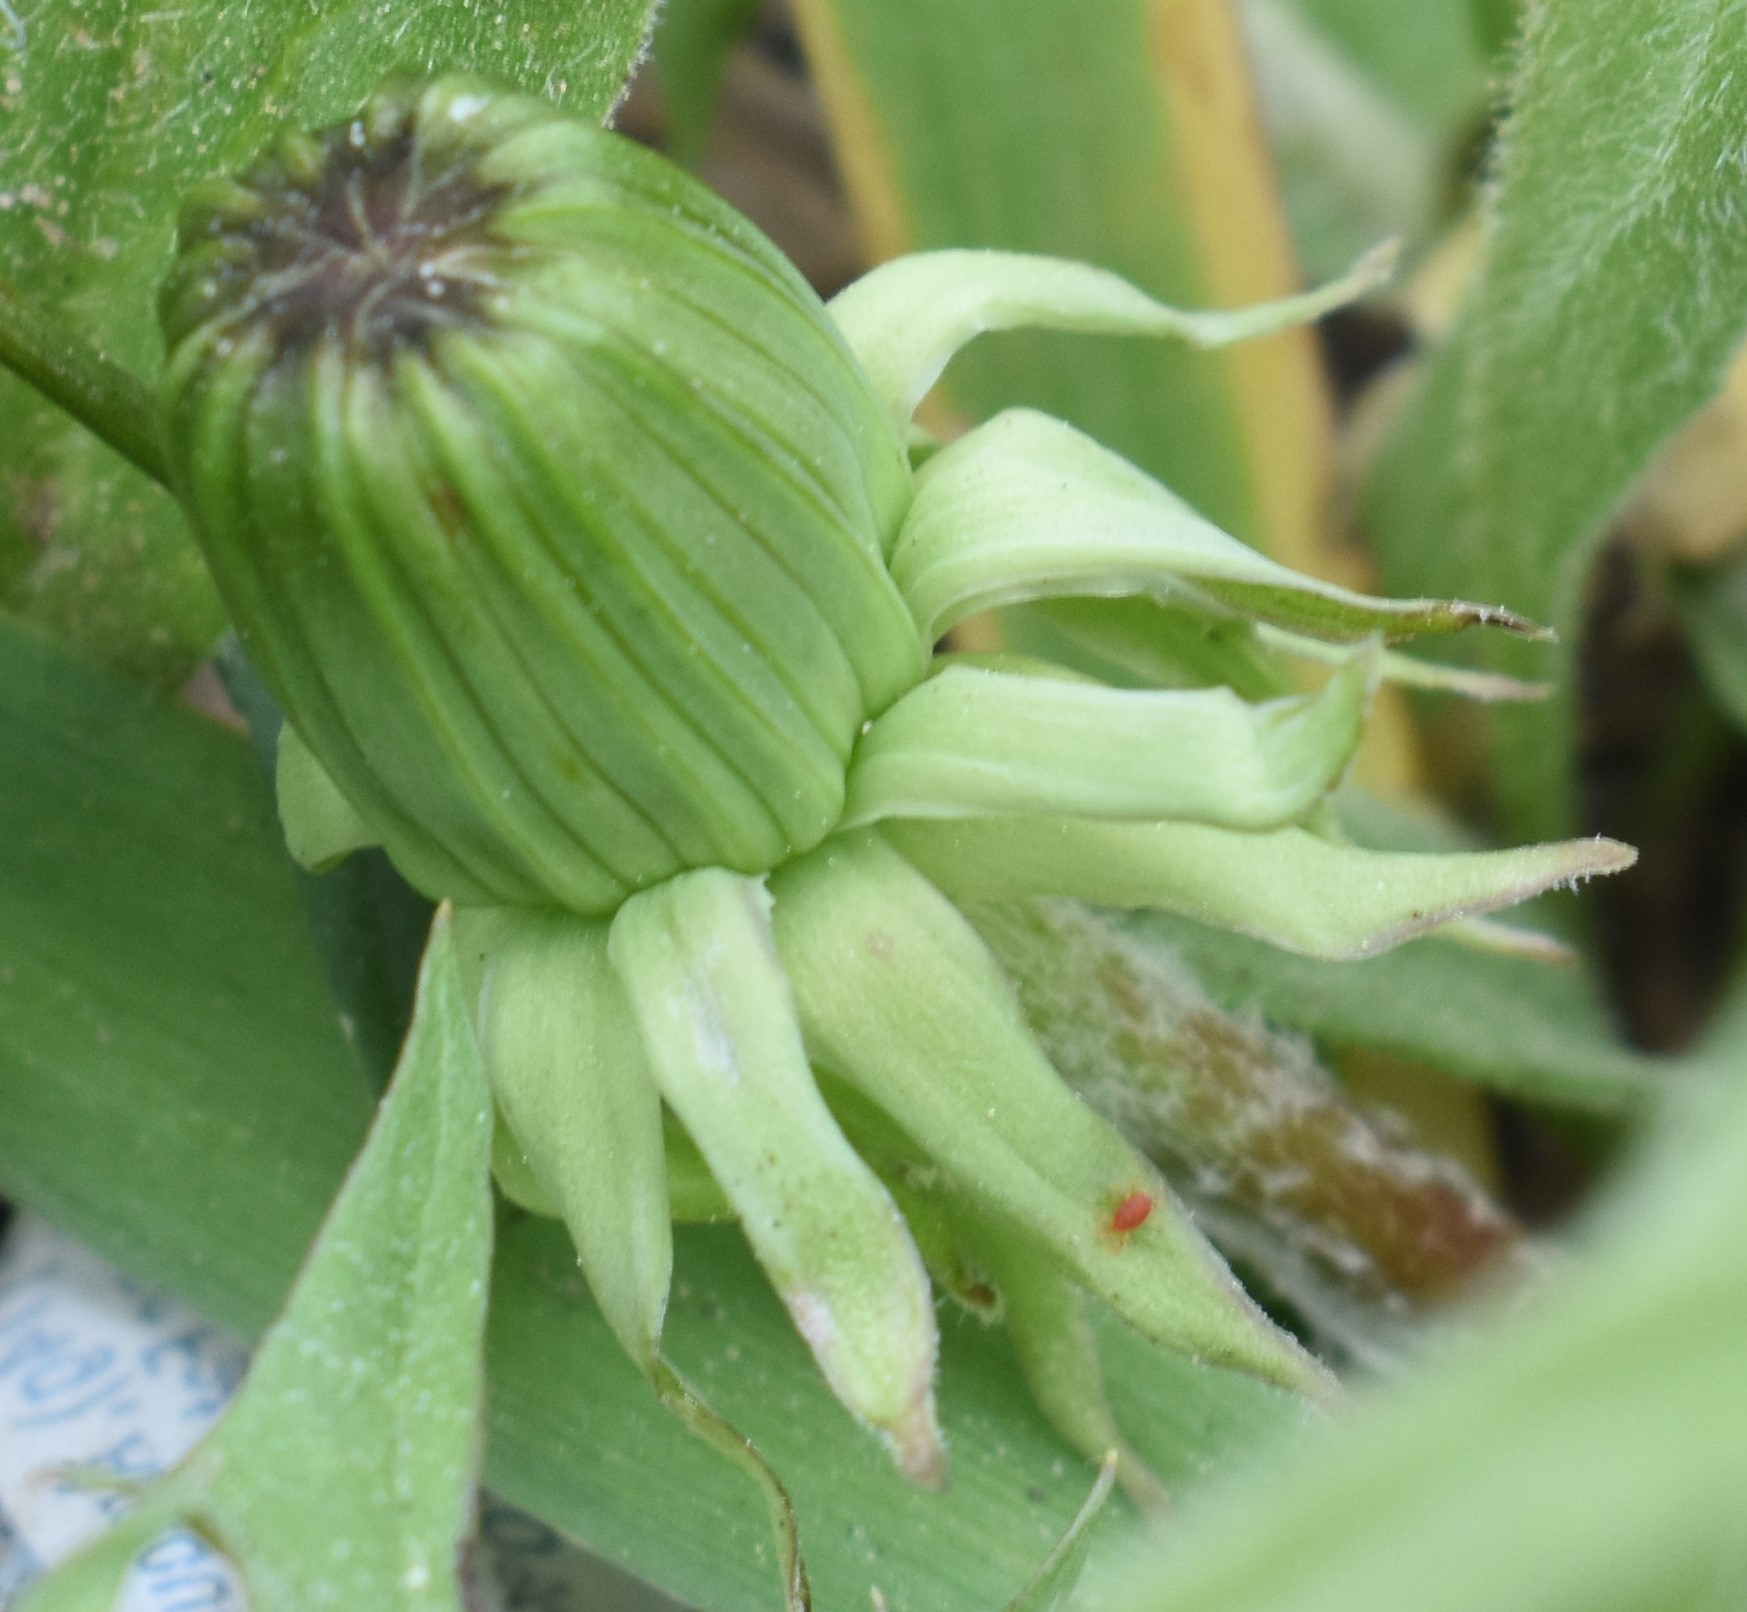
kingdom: Plantae
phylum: Tracheophyta
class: Magnoliopsida
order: Asterales
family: Asteraceae
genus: Taraxacum
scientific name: Taraxacum officinale
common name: Common dandelion
